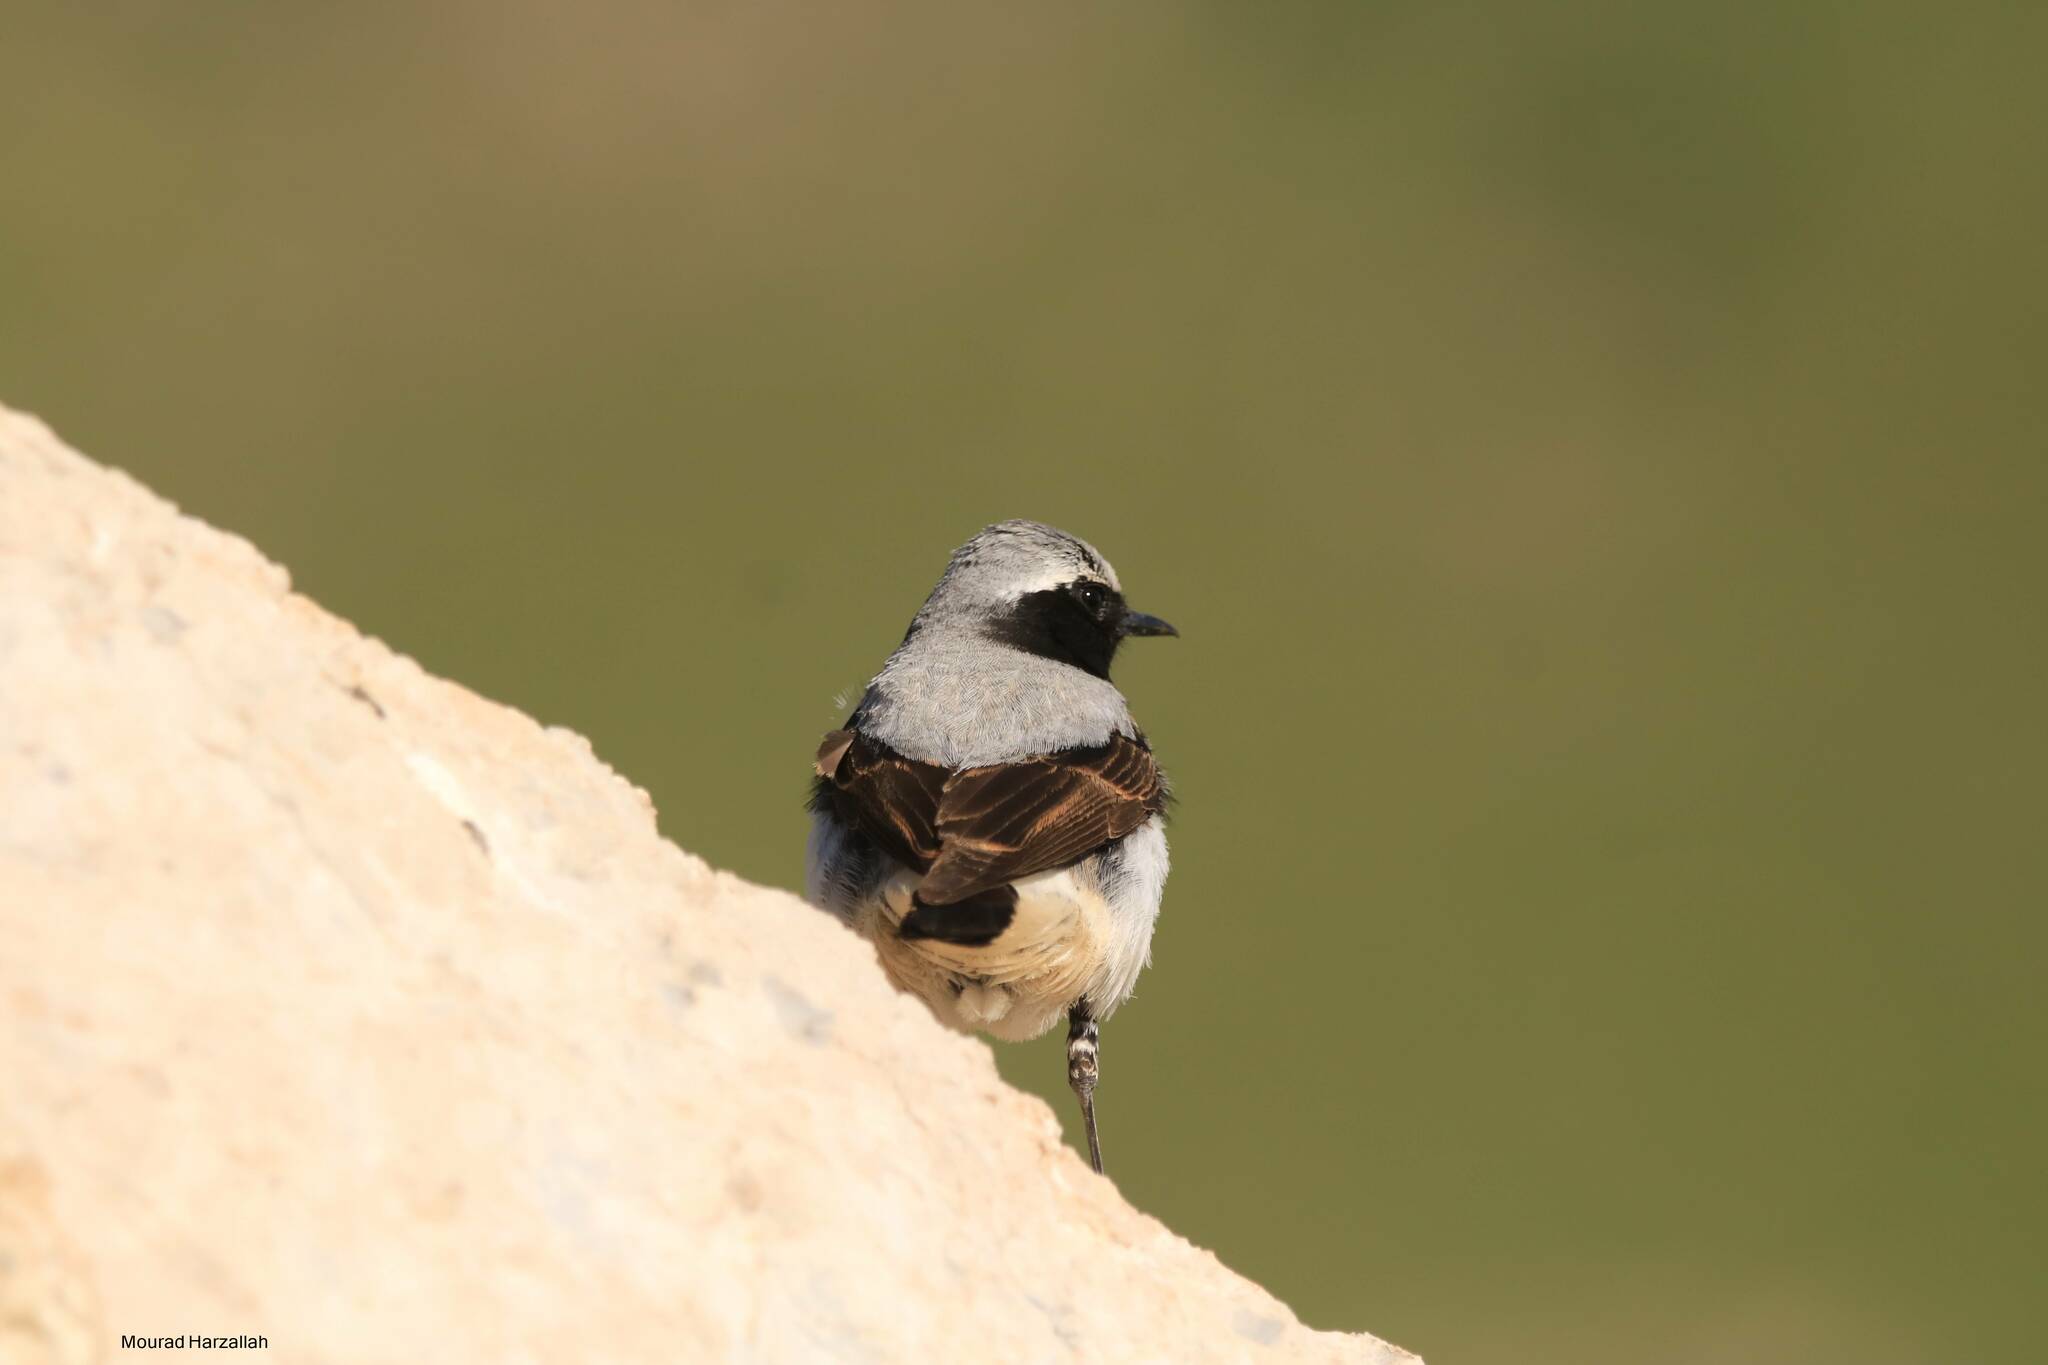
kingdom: Animalia
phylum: Chordata
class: Aves
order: Passeriformes
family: Muscicapidae
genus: Oenanthe
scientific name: Oenanthe oenanthe
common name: Northern wheatear
